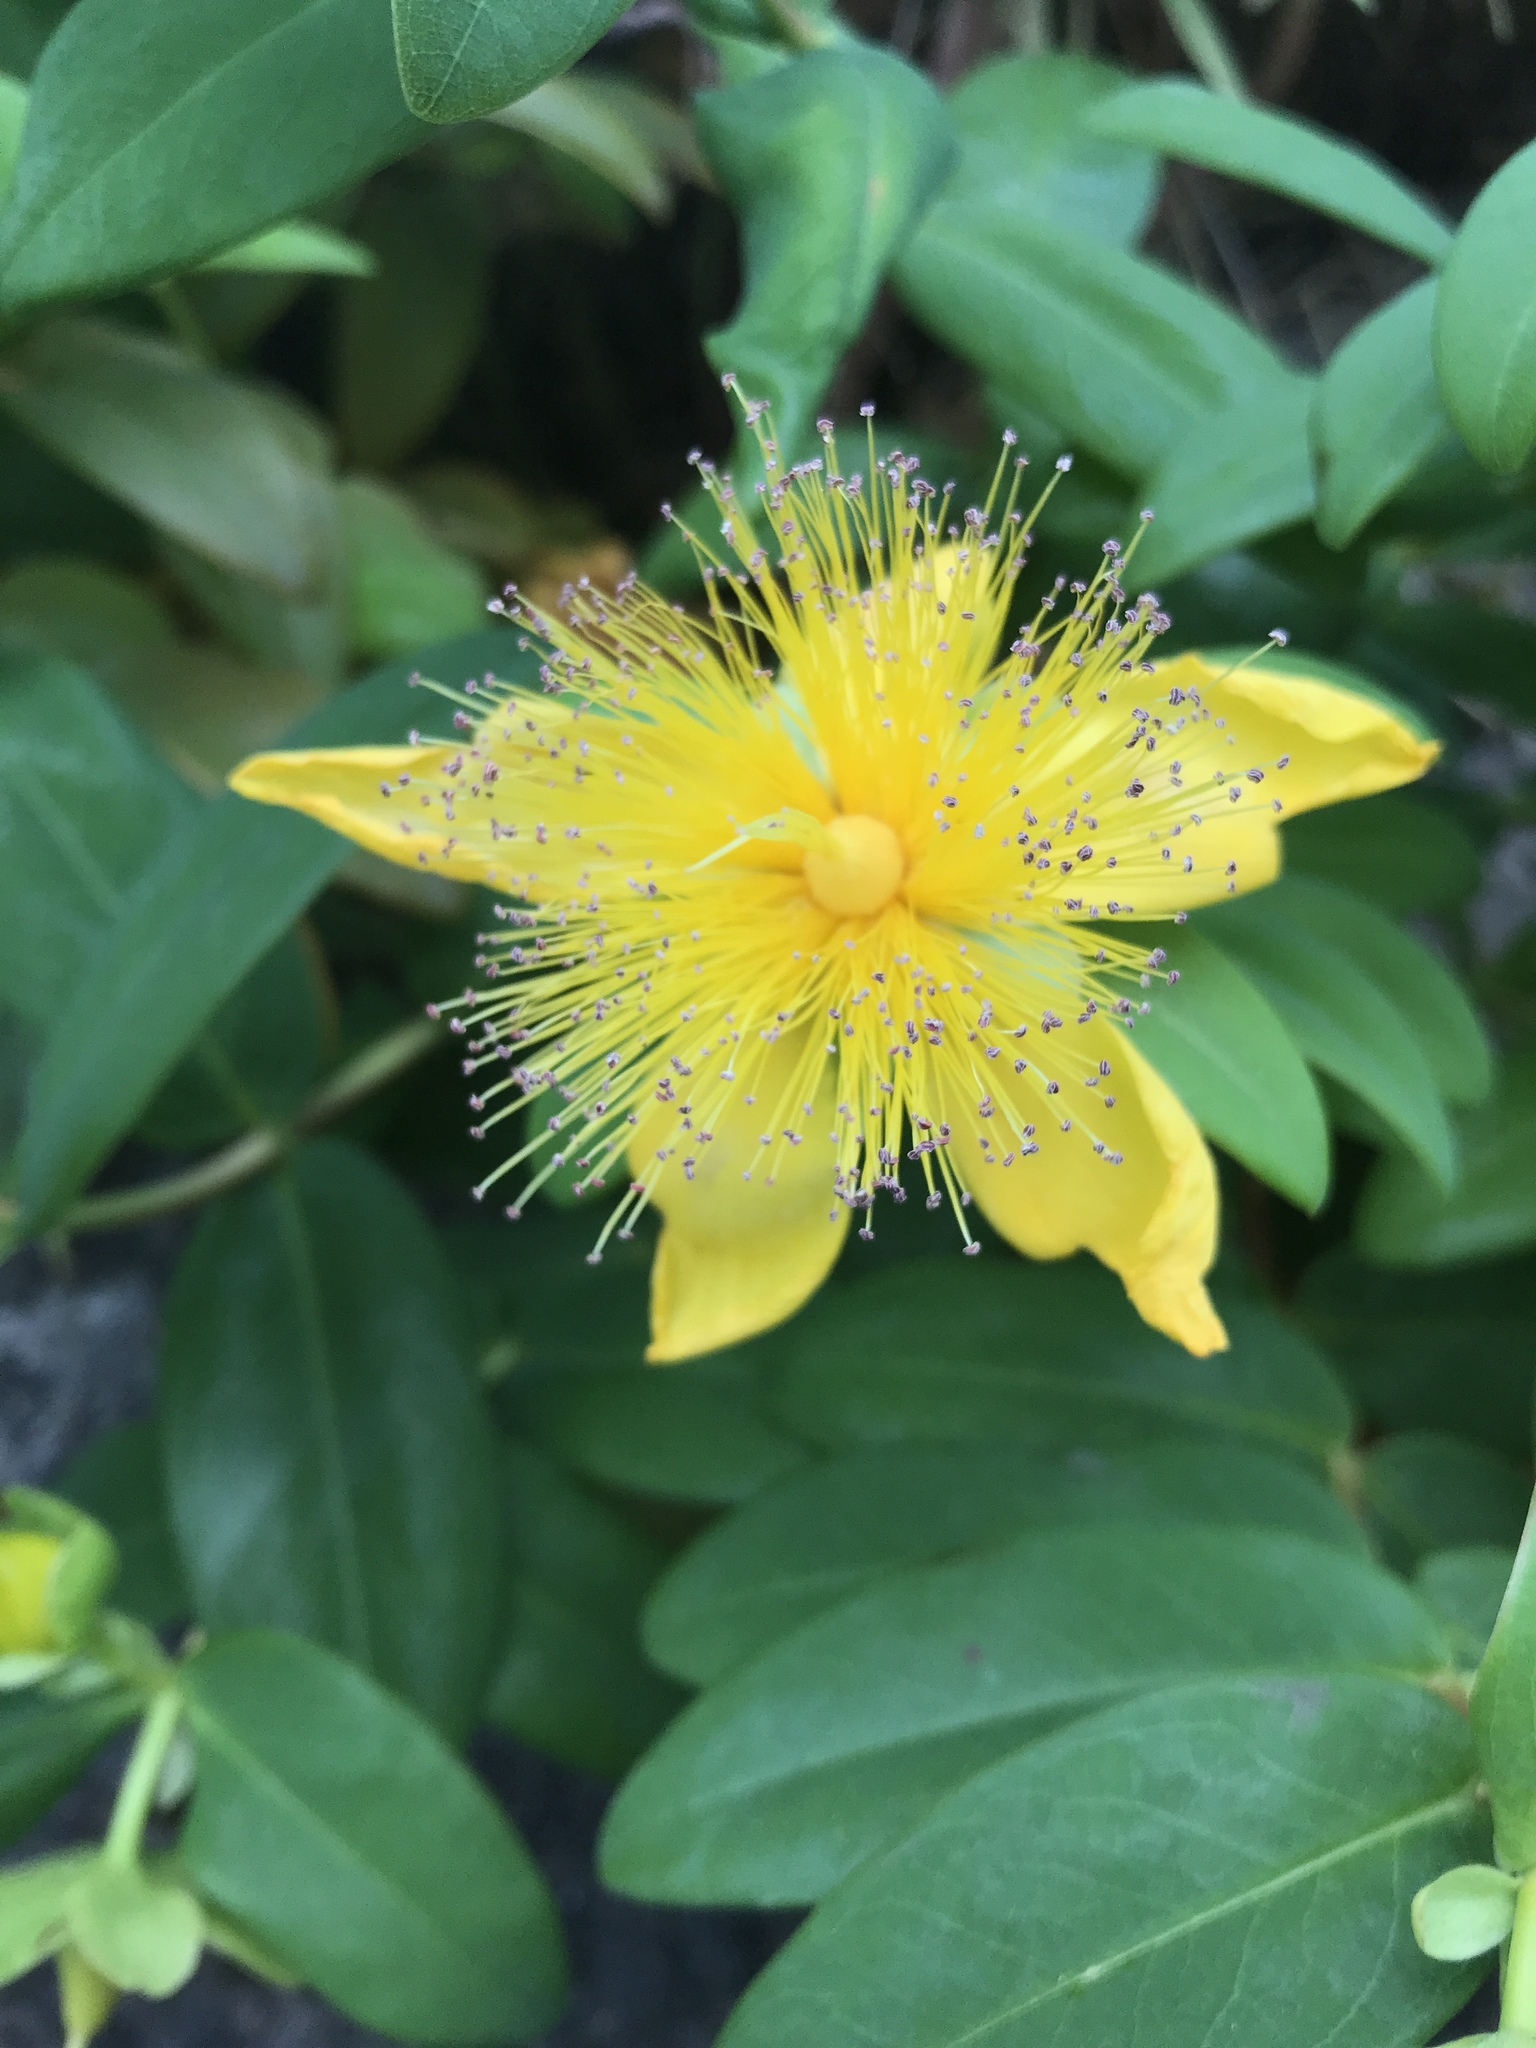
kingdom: Plantae
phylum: Tracheophyta
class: Magnoliopsida
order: Malpighiales
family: Hypericaceae
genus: Hypericum
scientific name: Hypericum calycinum
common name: Rose-of-sharon
